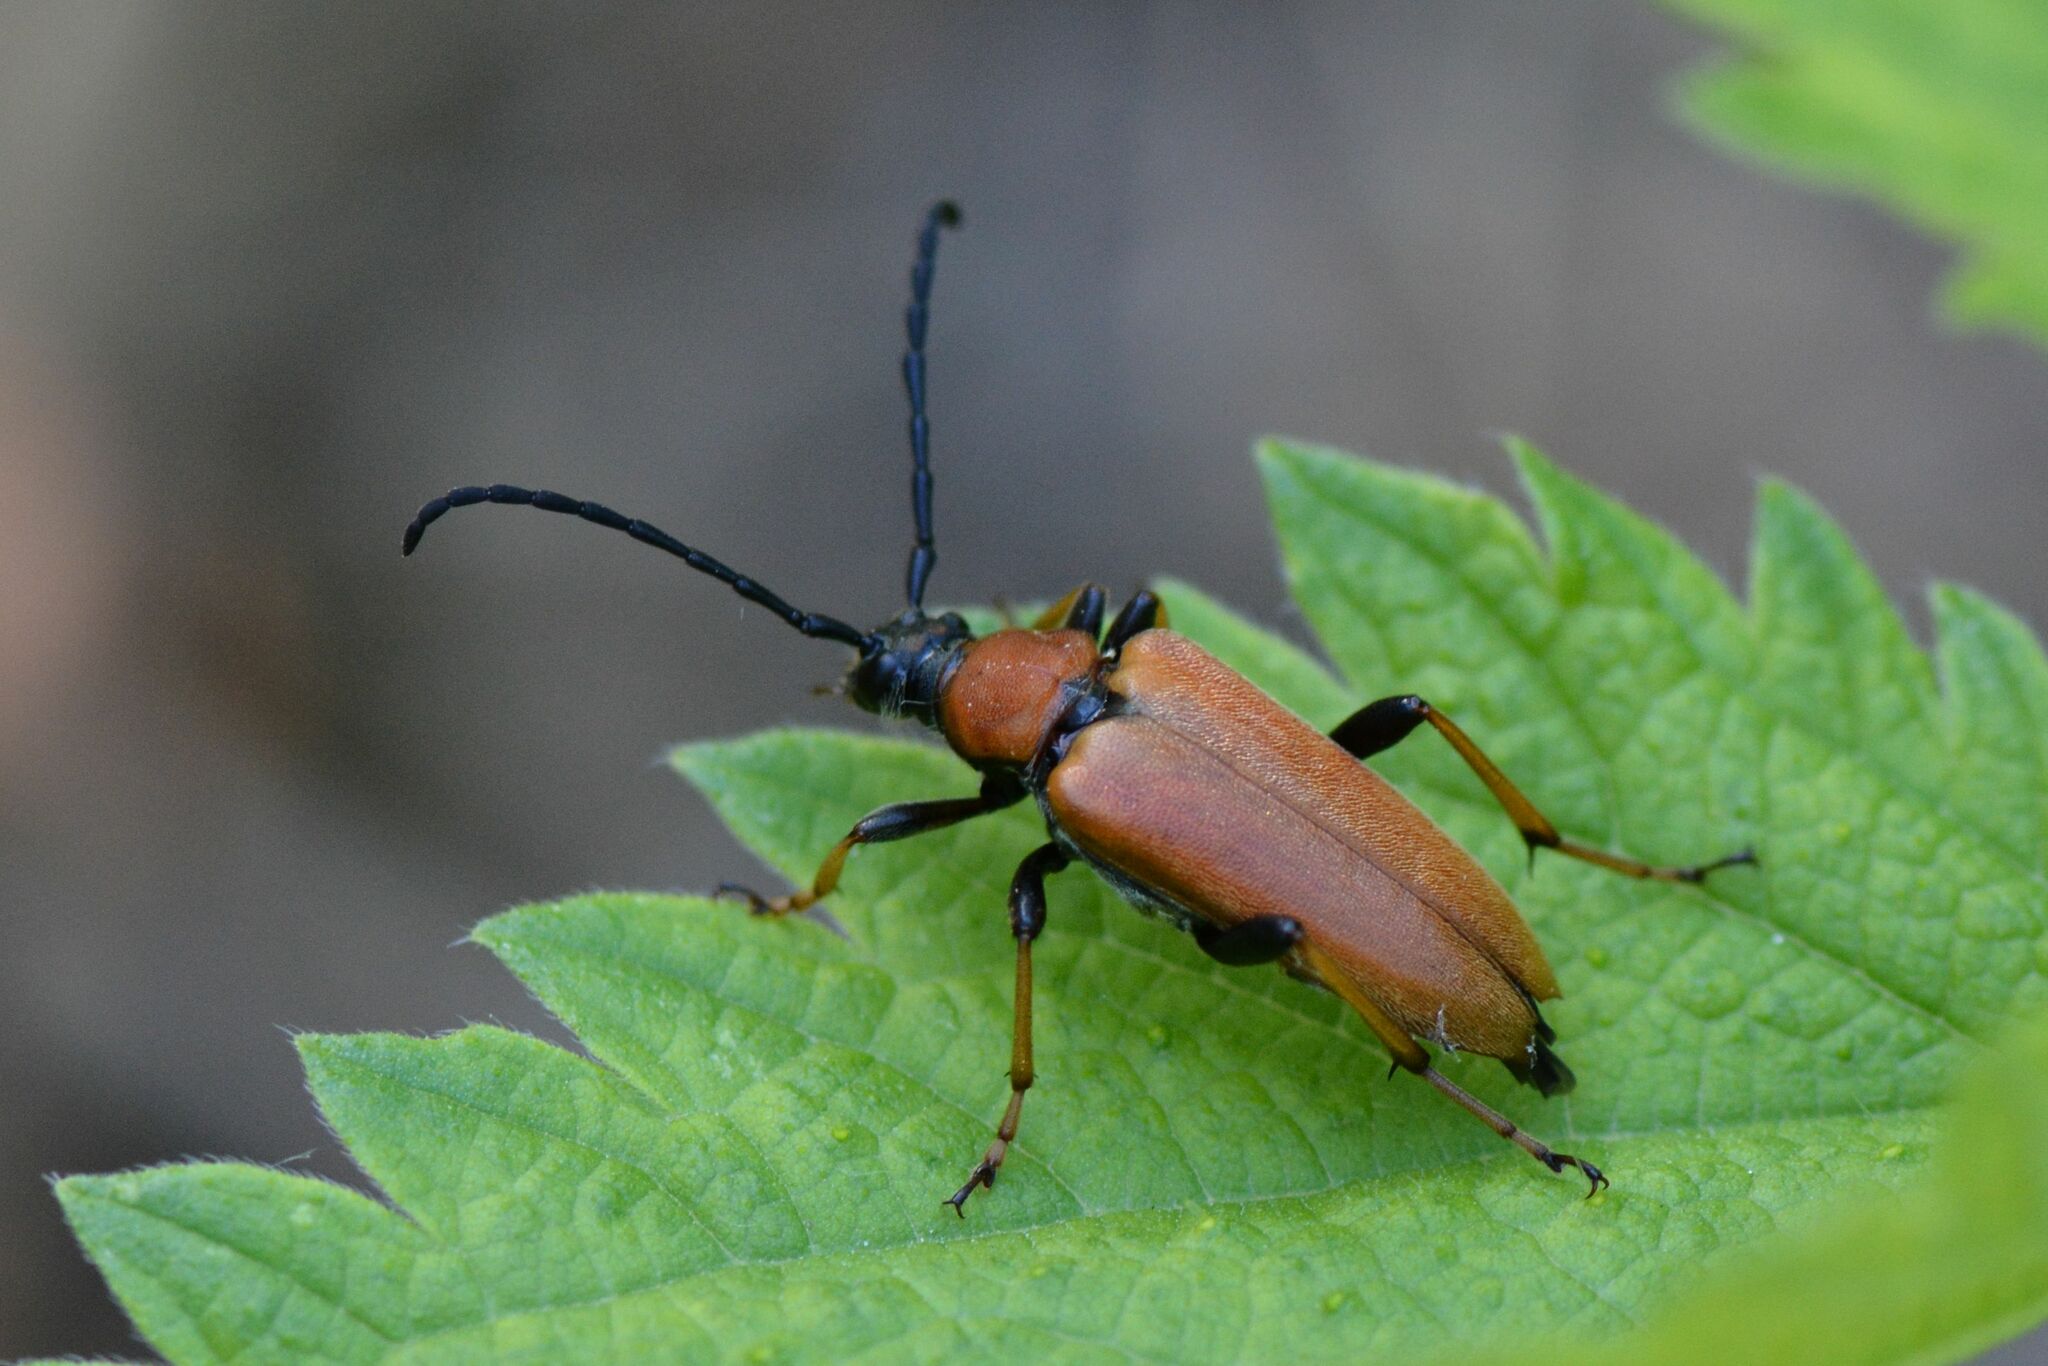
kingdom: Animalia
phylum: Arthropoda
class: Insecta
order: Coleoptera
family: Cerambycidae
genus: Stictoleptura
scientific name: Stictoleptura rubra
